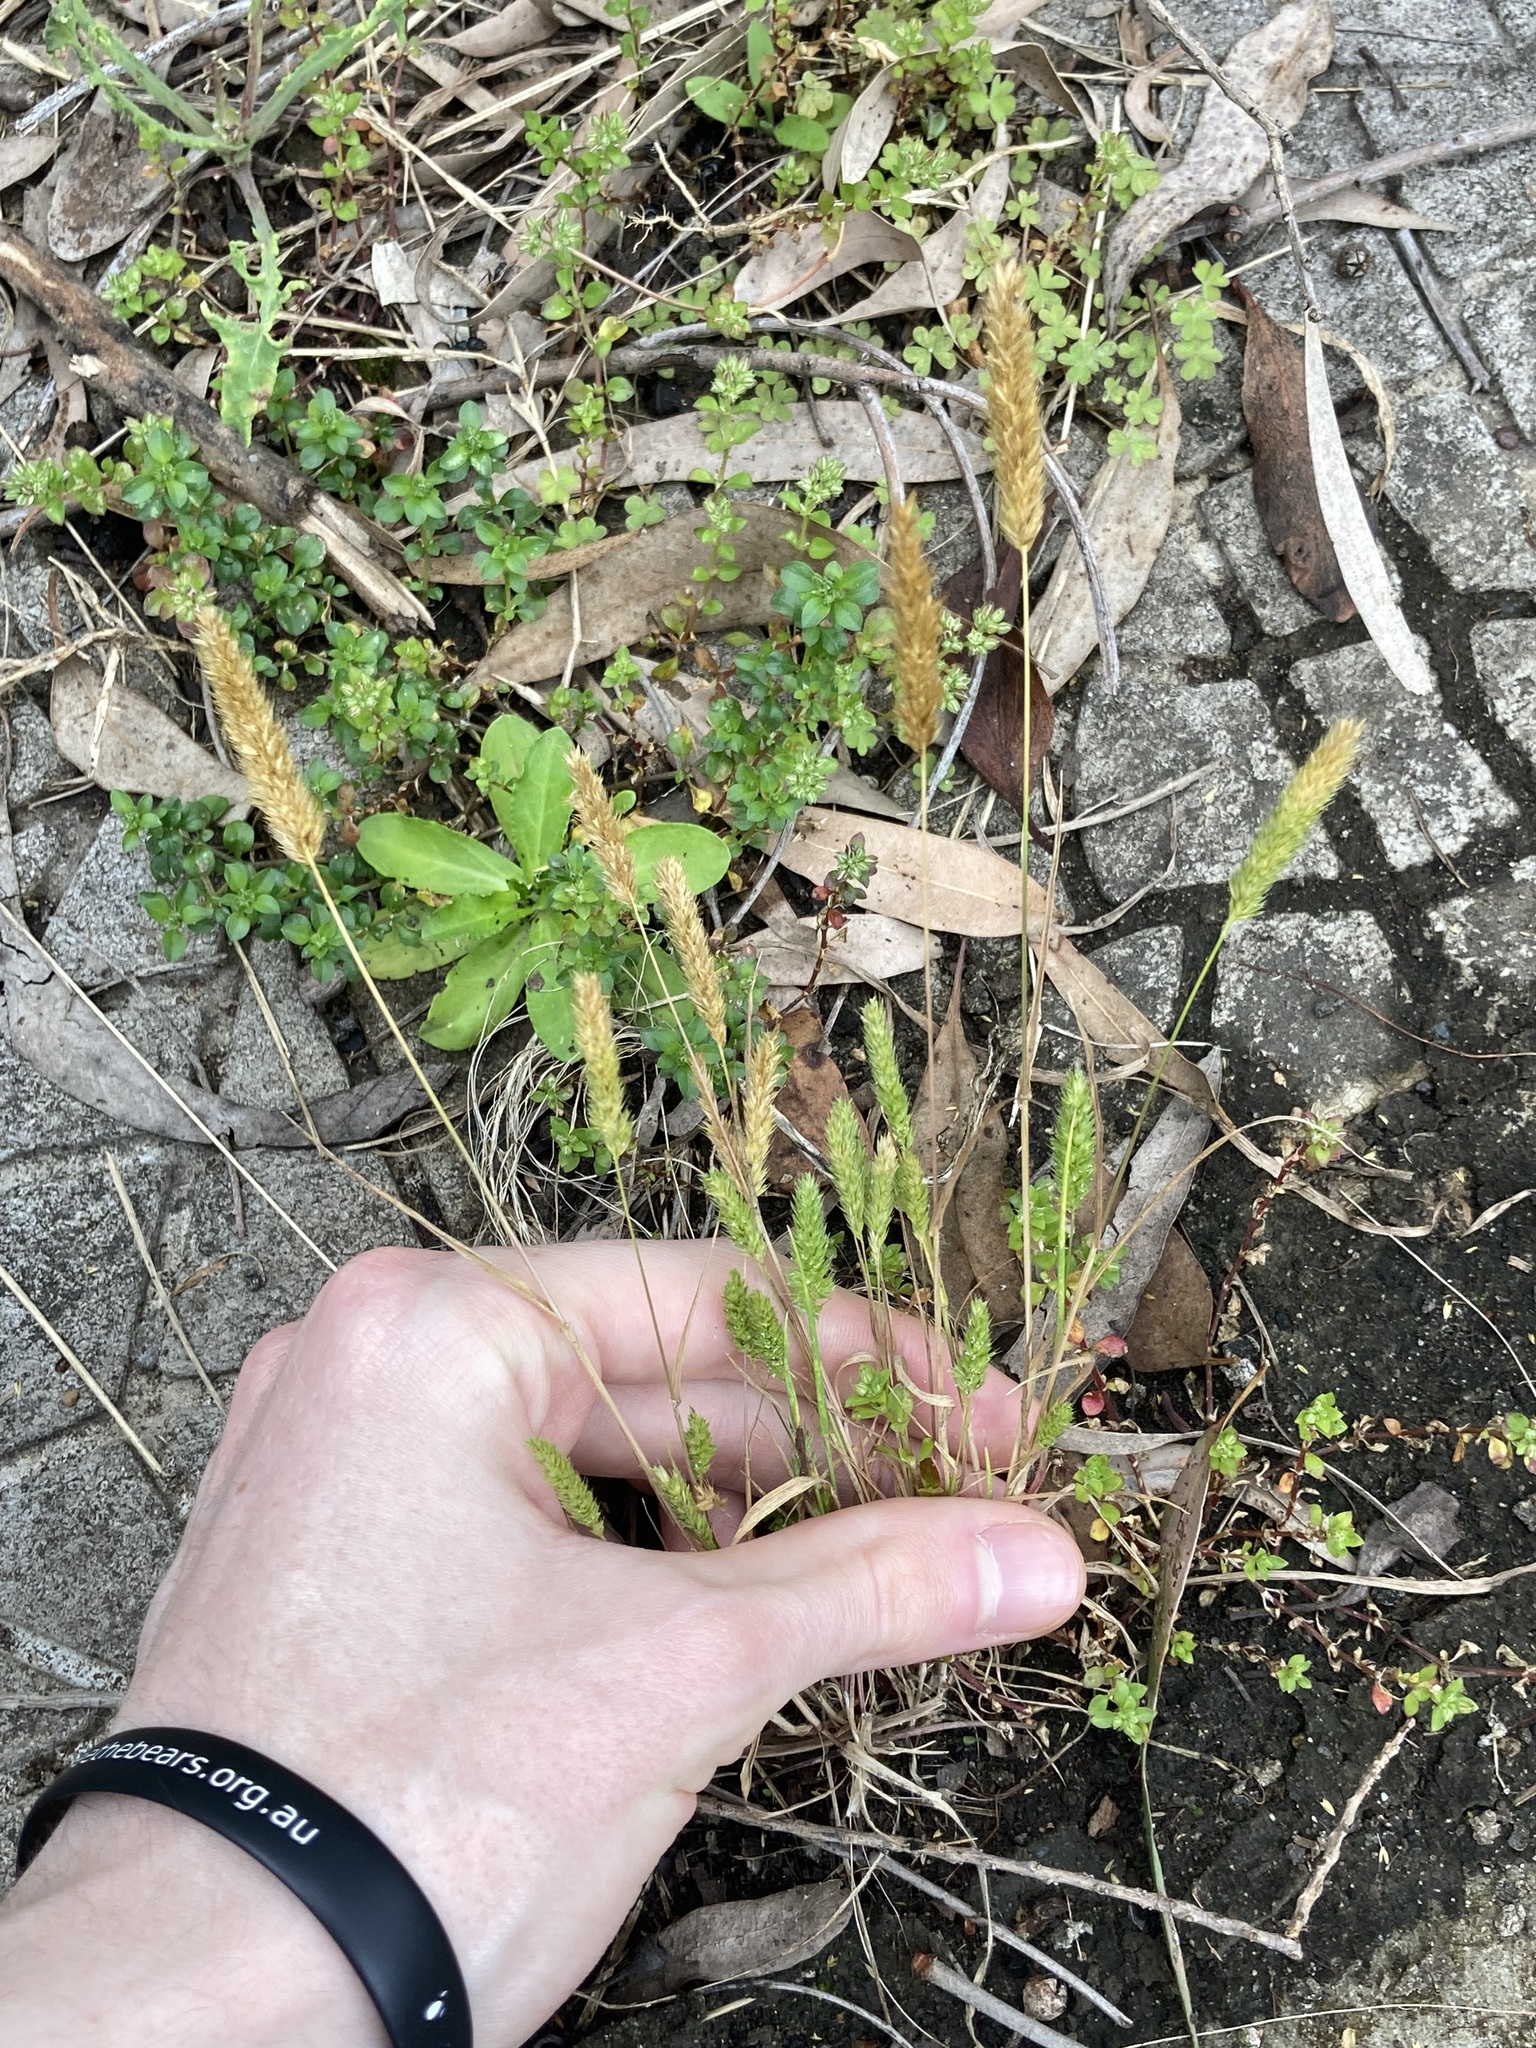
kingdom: Plantae
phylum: Tracheophyta
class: Liliopsida
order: Poales
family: Poaceae
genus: Rostraria
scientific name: Rostraria cristata
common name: Mediterranean hair-grass
